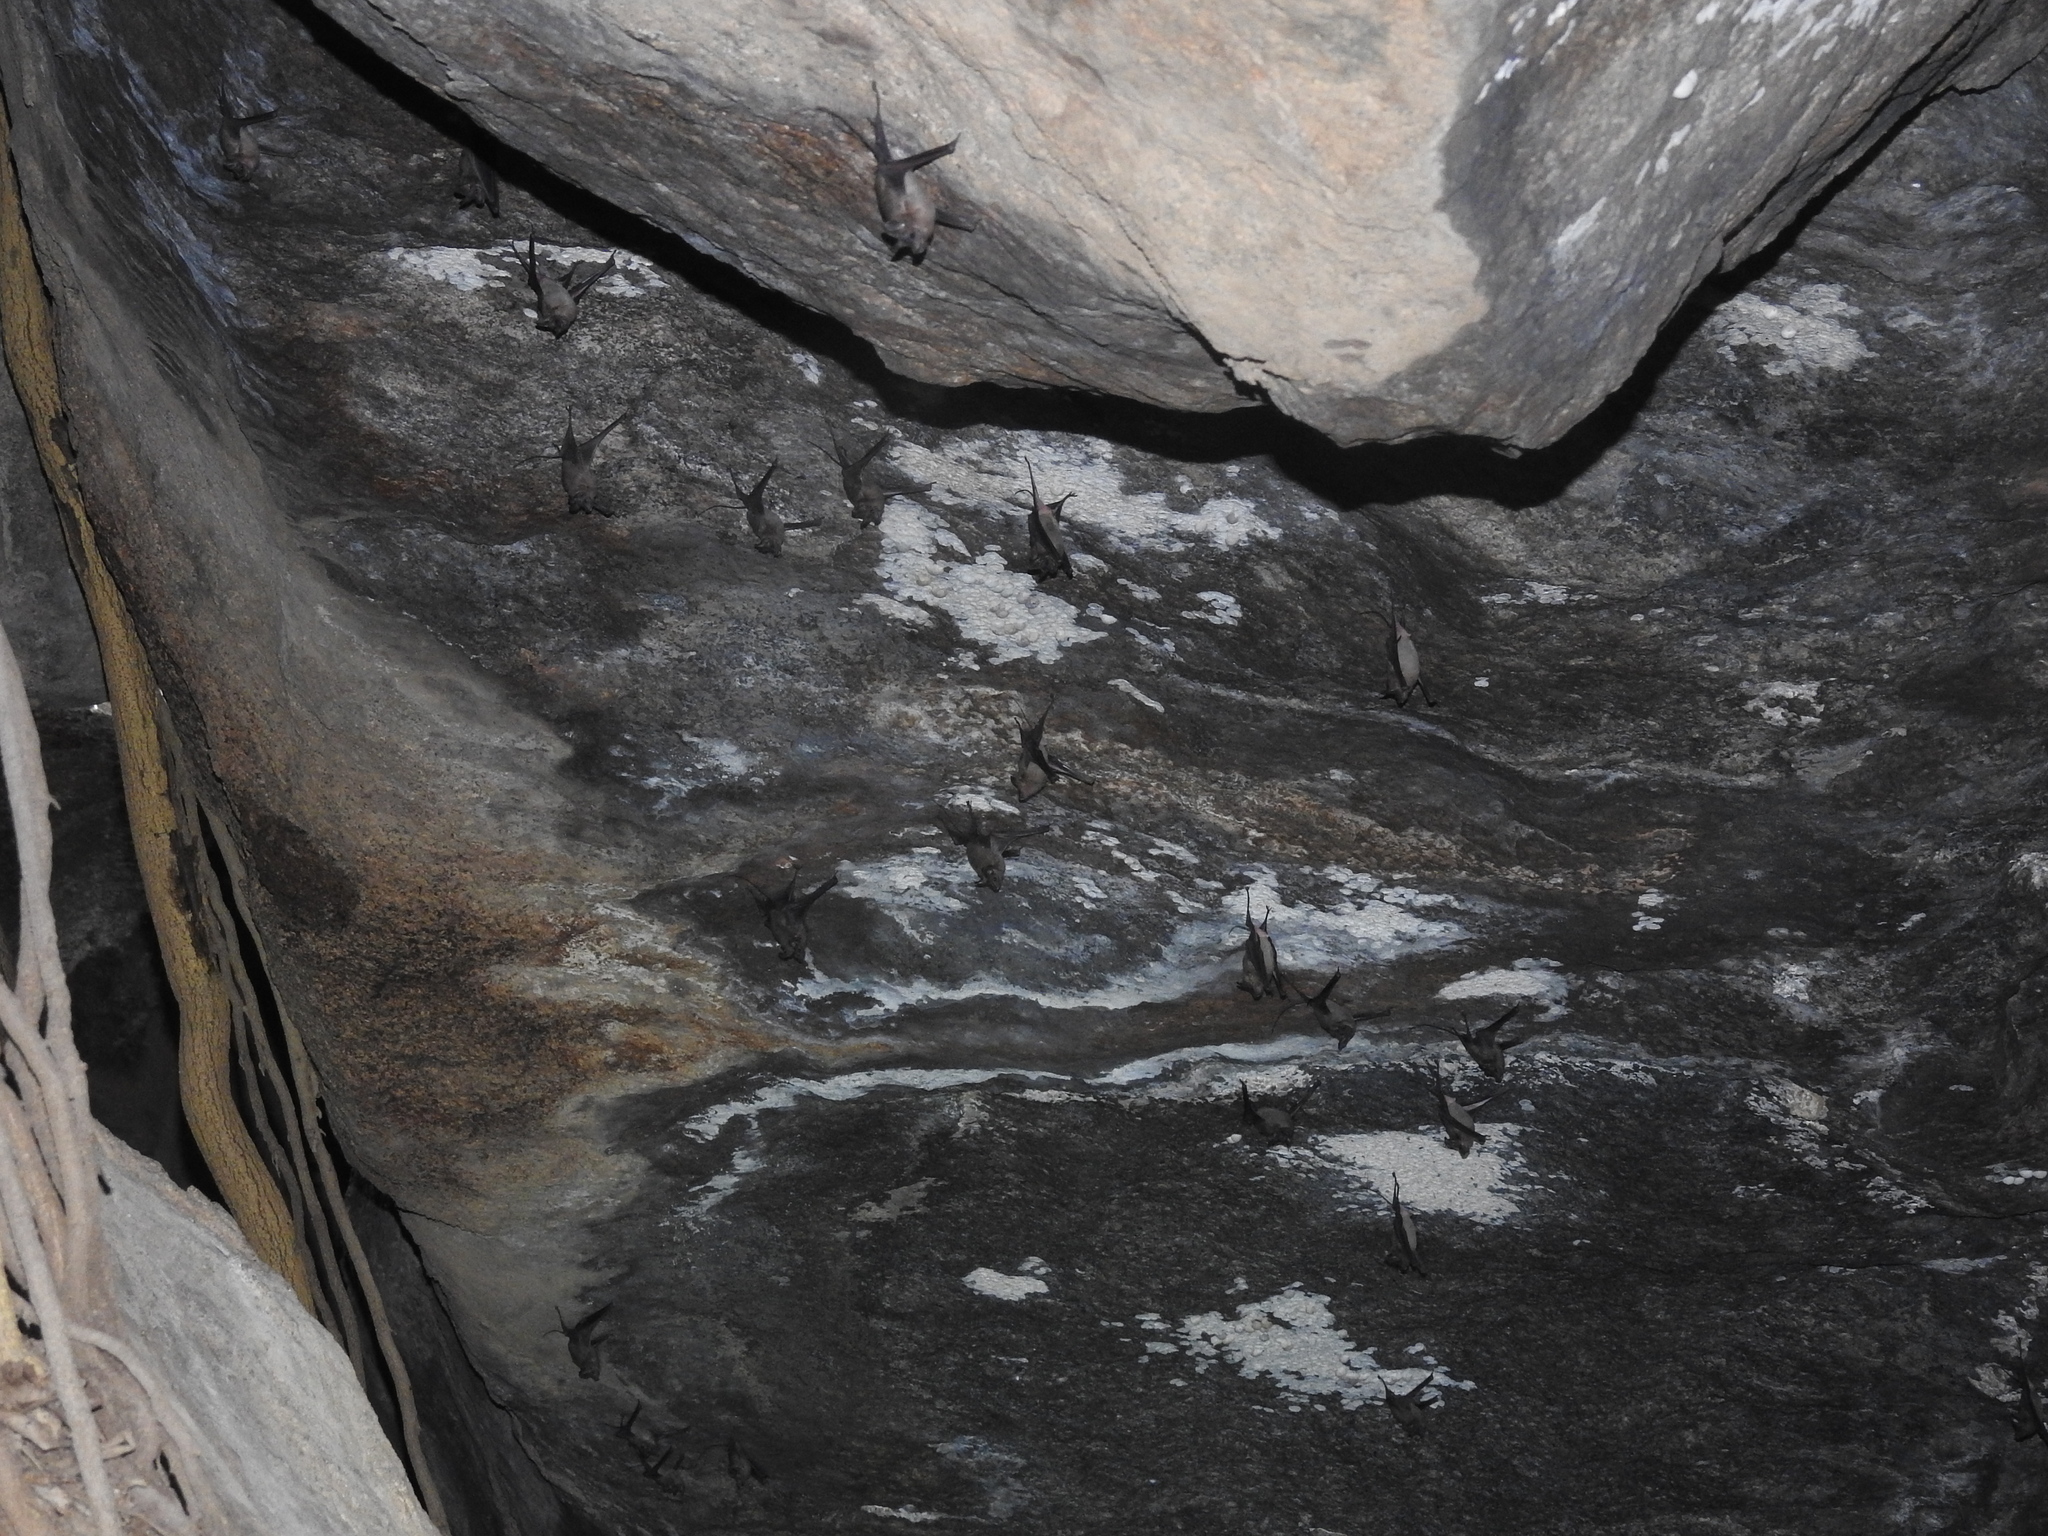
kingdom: Animalia
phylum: Chordata
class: Mammalia
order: Chiroptera
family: Rhinopomatidae
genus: Rhinopoma
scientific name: Rhinopoma hardwickii
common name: Lesser mouse-tailed bat
